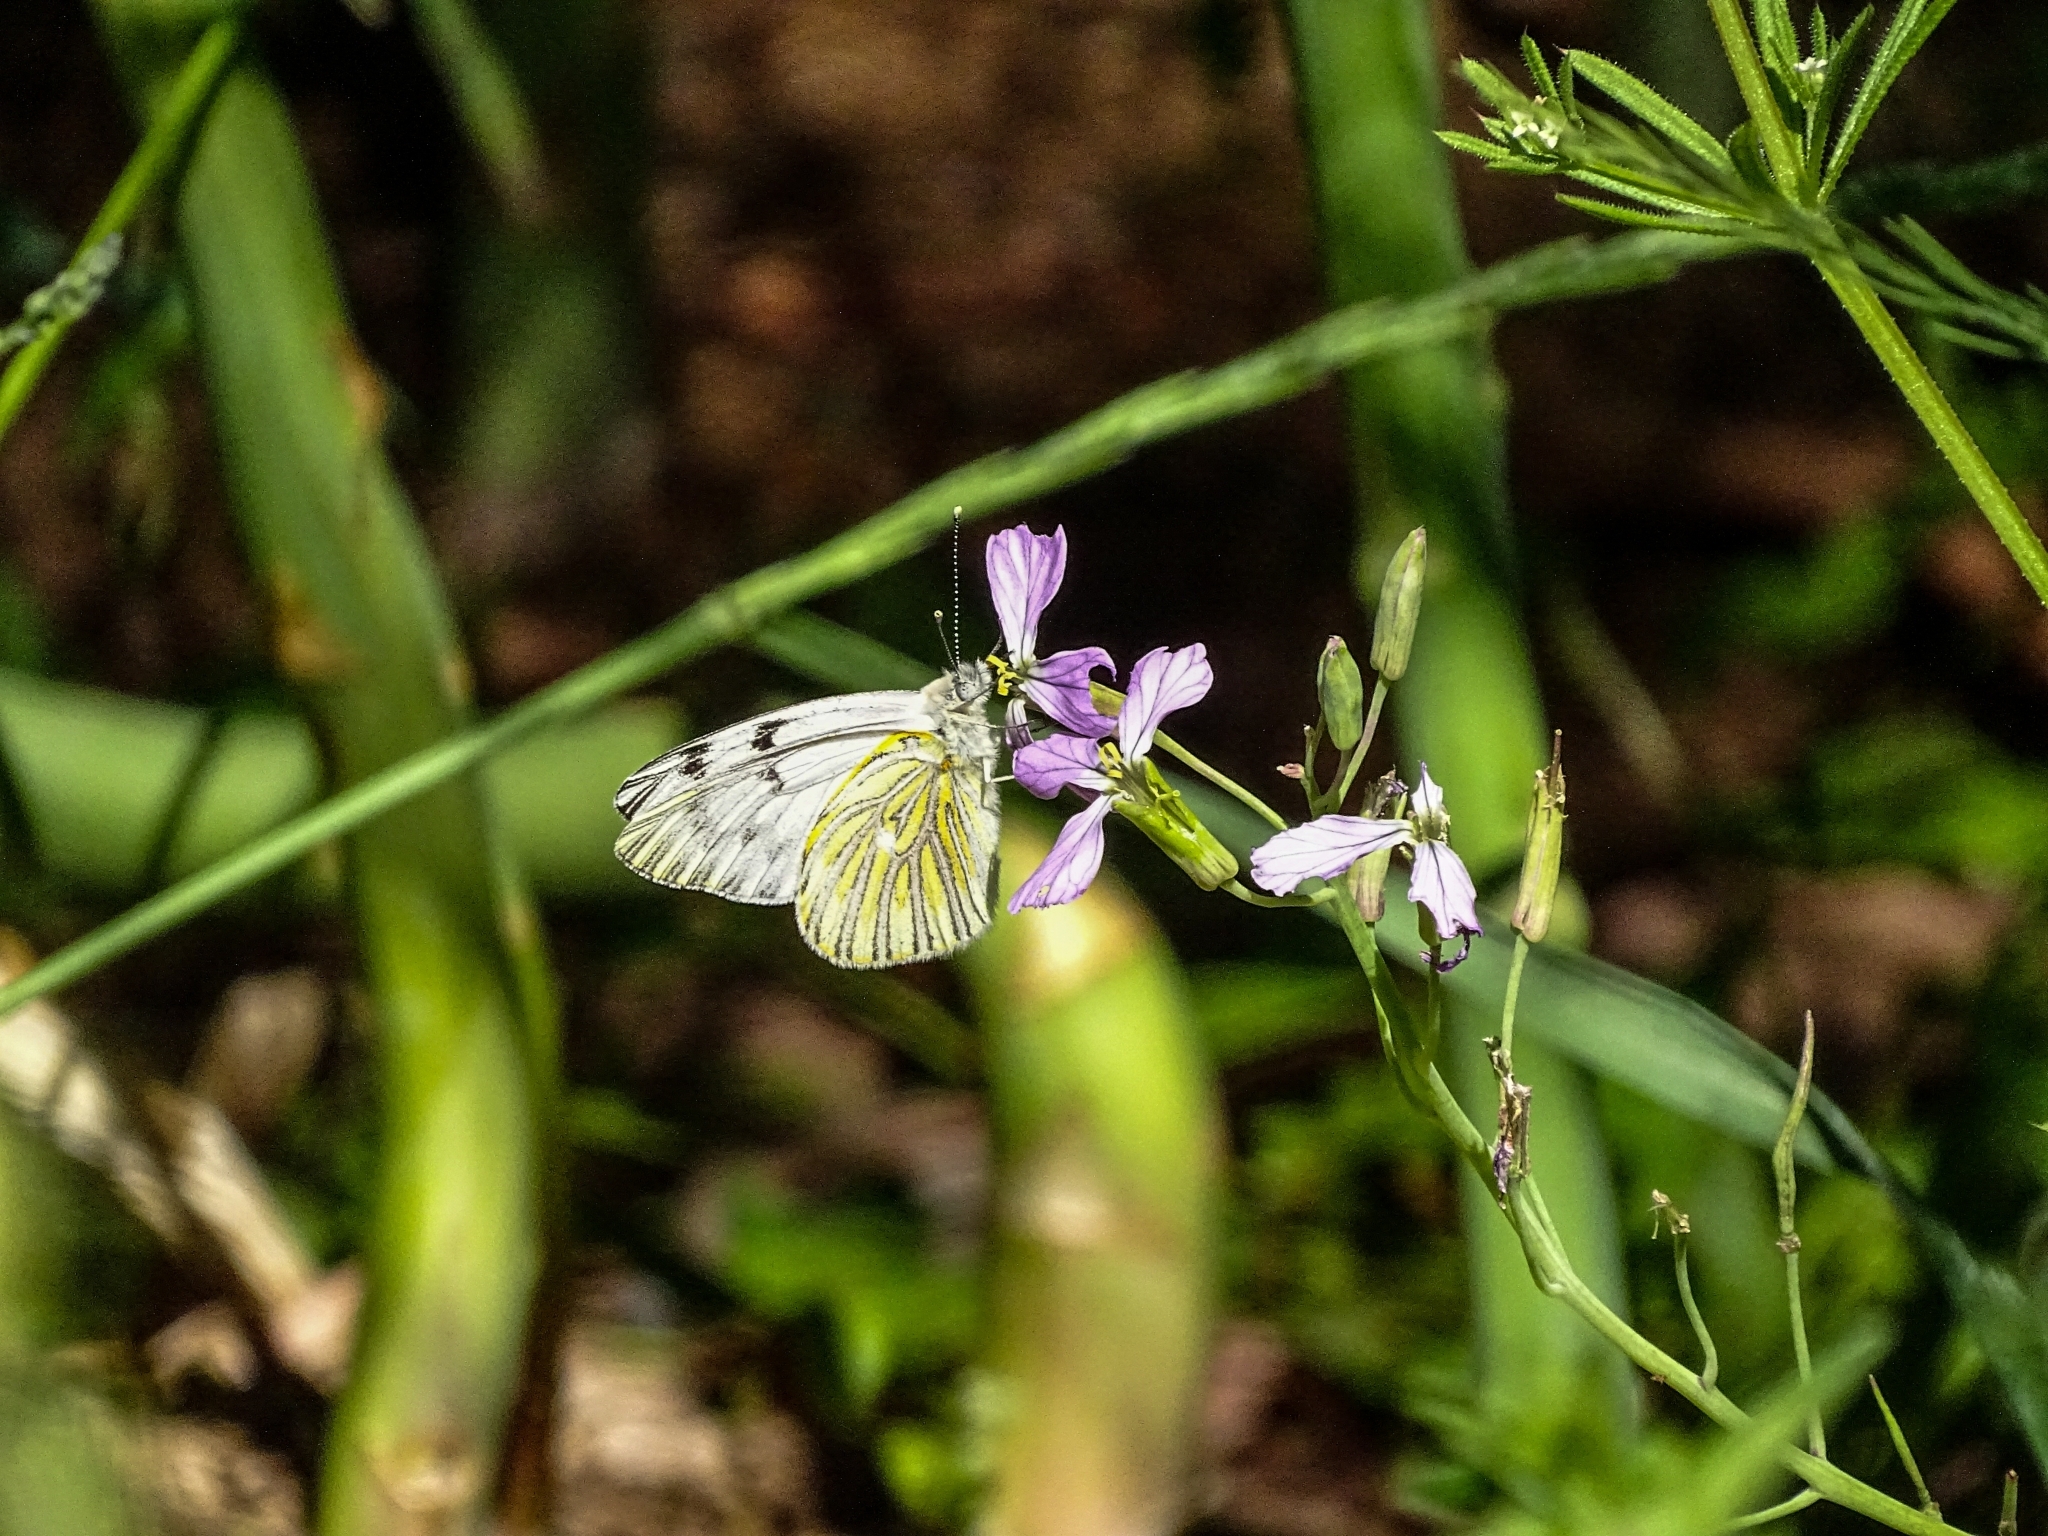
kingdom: Animalia
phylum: Arthropoda
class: Insecta
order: Lepidoptera
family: Pieridae
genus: Tatochila
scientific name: Tatochila mercedis
